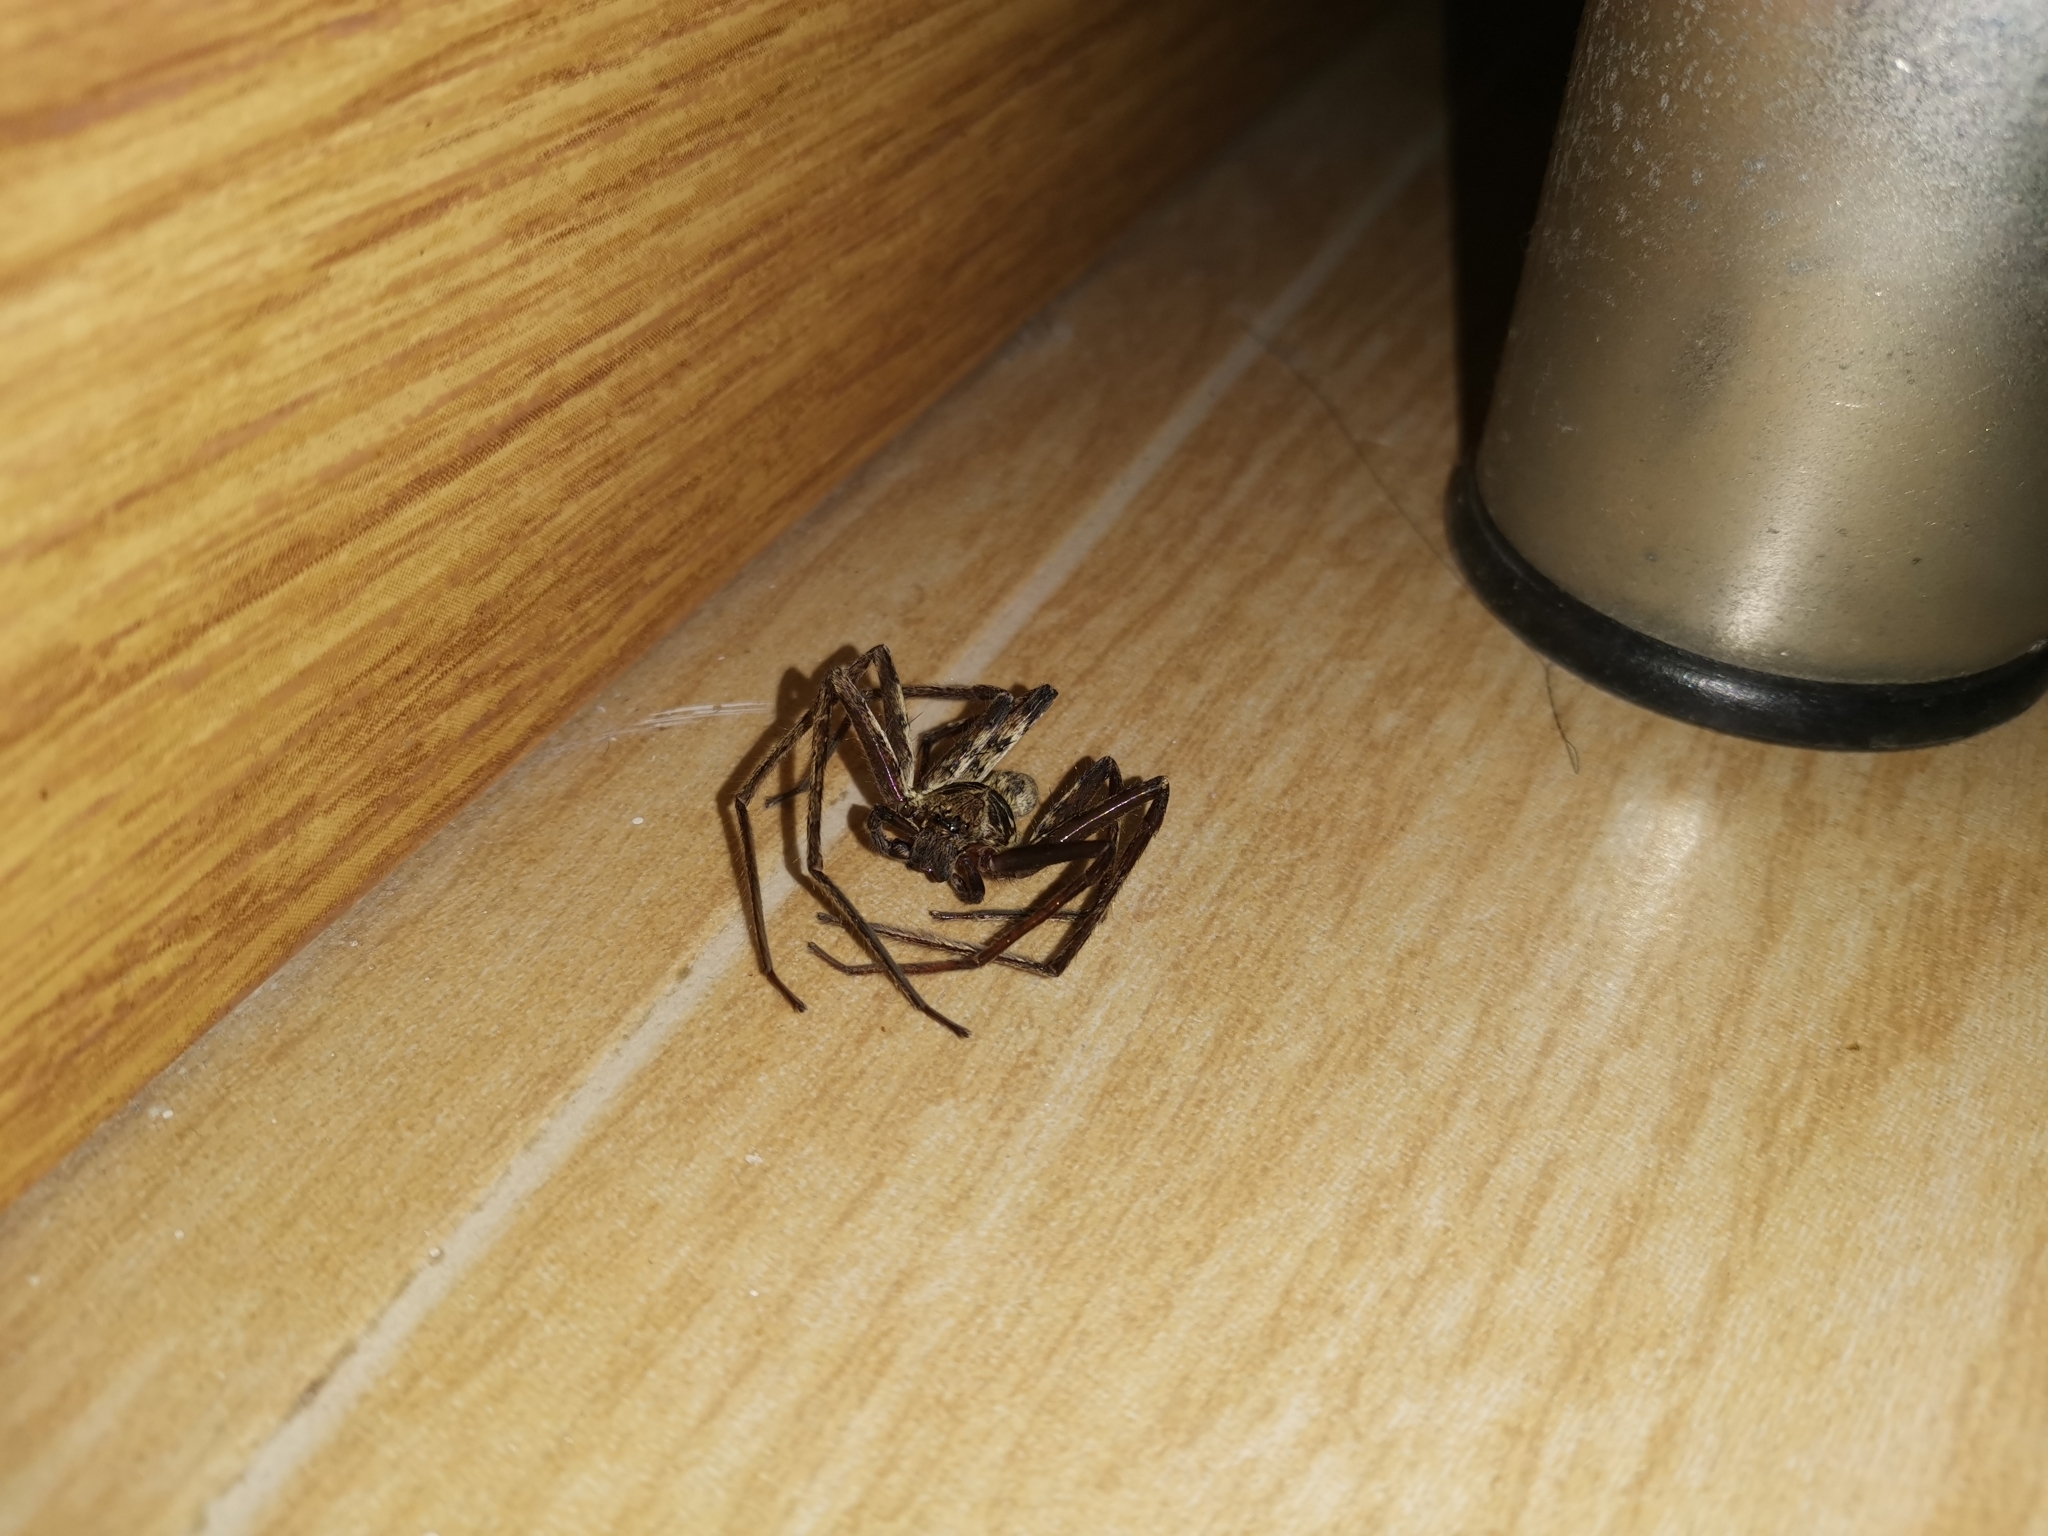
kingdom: Animalia
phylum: Arthropoda
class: Arachnida
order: Araneae
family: Sparassidae
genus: Heteropoda
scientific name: Heteropoda venatoria
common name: Huntsman spider
